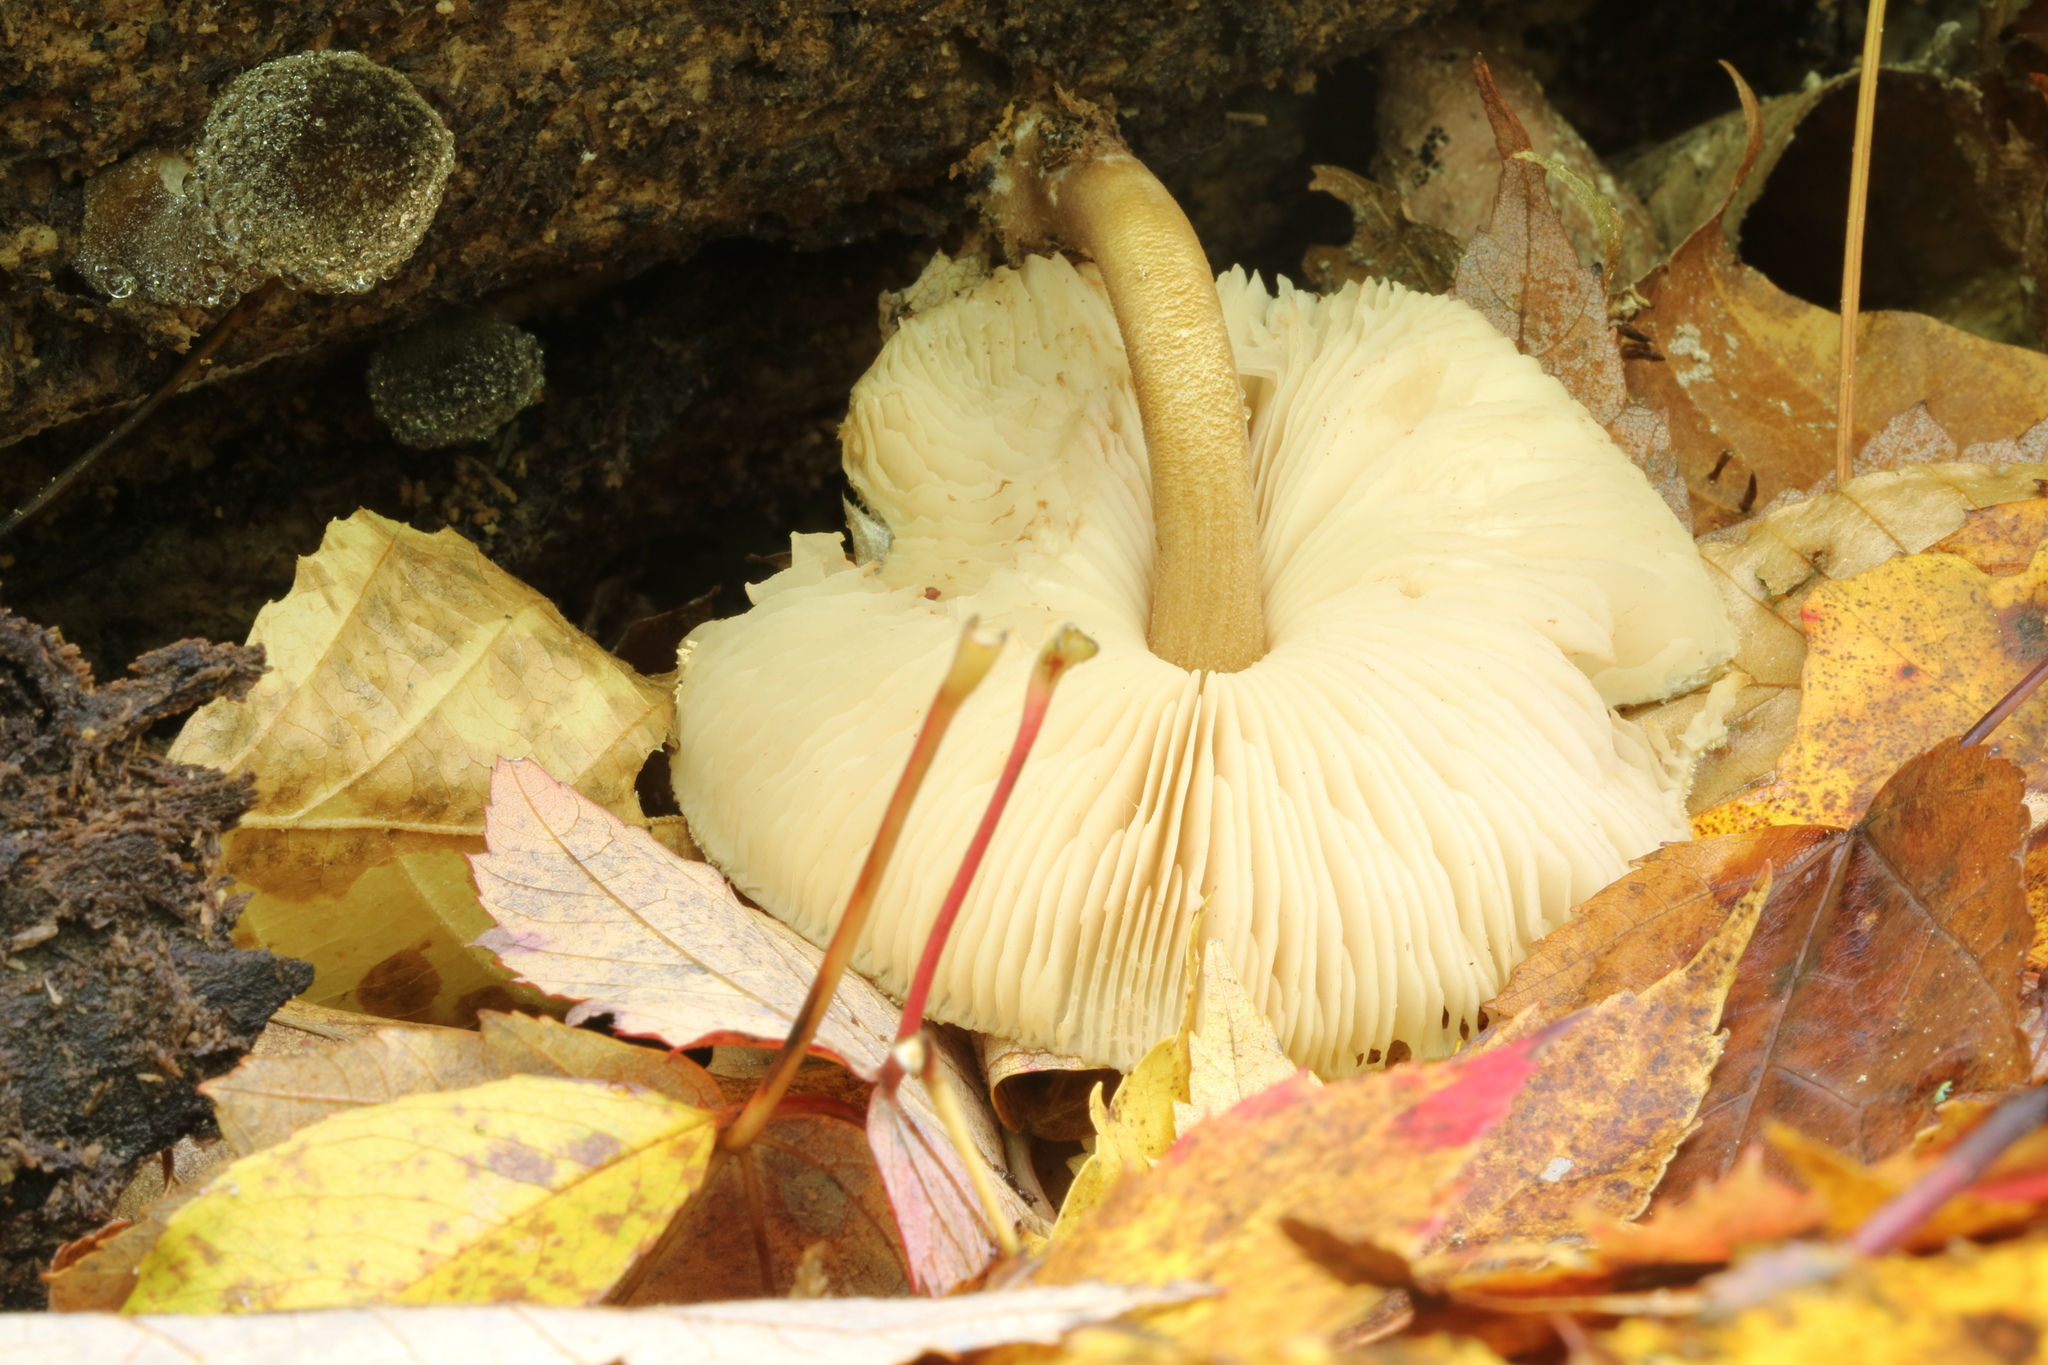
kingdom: Fungi
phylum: Basidiomycota
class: Agaricomycetes
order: Agaricales
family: Pluteaceae
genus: Pluteus
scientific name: Pluteus granularis
